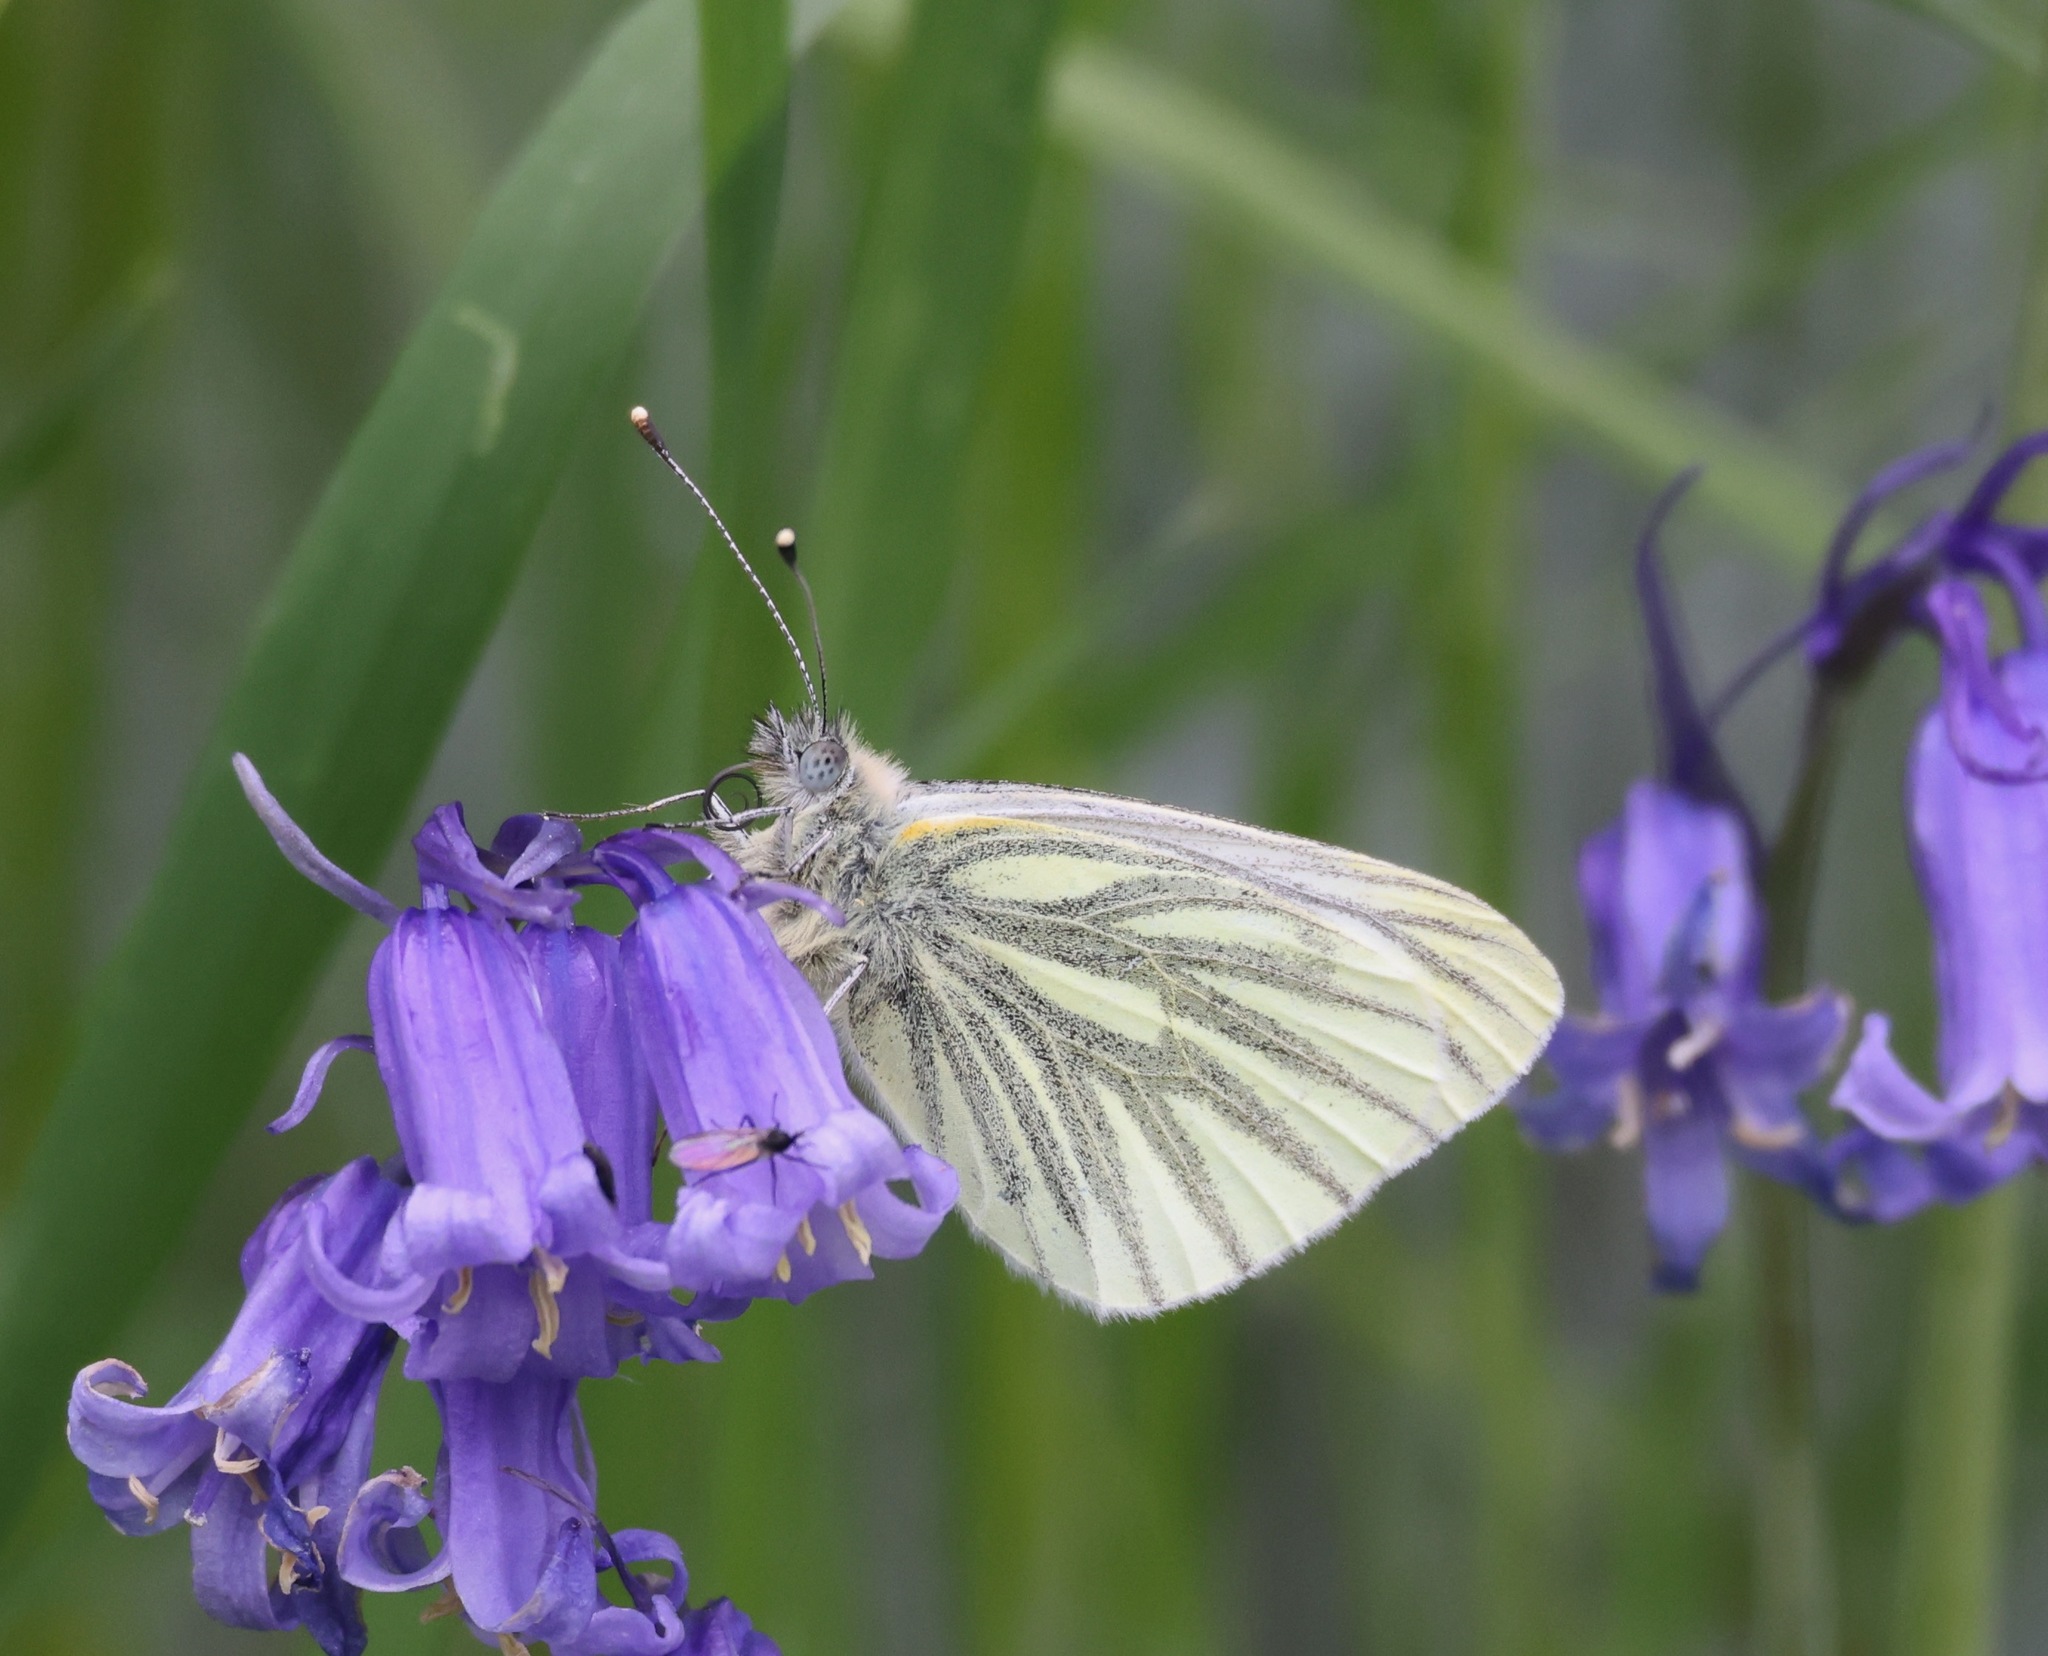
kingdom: Animalia
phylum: Arthropoda
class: Insecta
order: Lepidoptera
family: Pieridae
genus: Pieris
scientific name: Pieris napi
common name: Green-veined white
